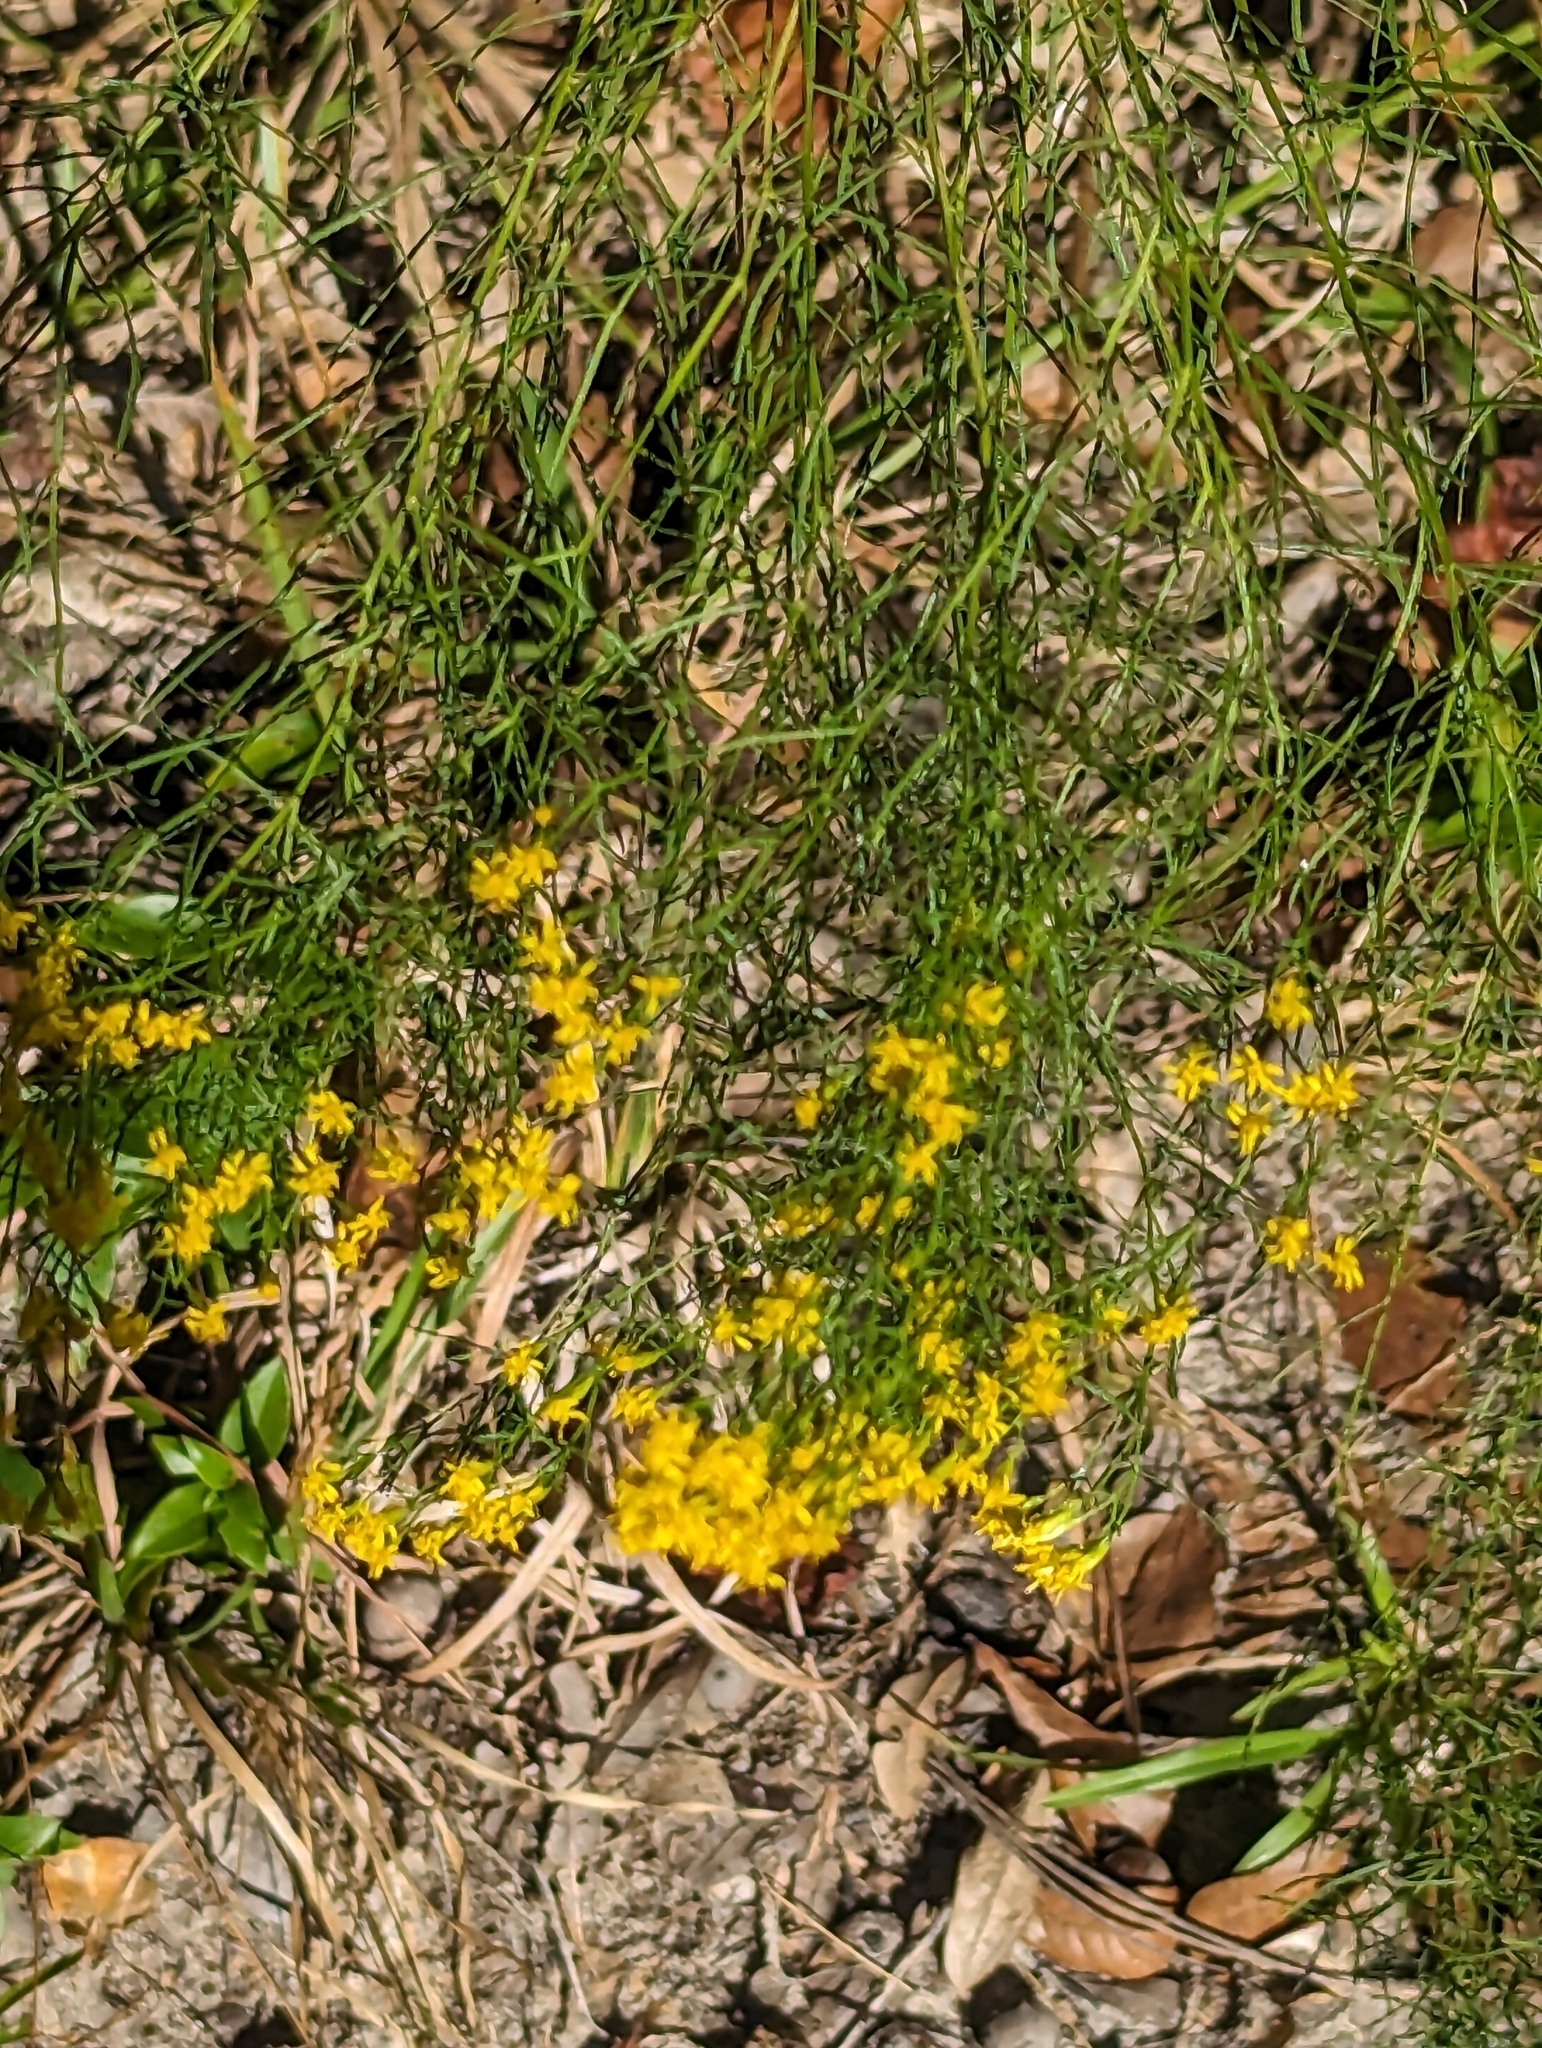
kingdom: Plantae
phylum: Tracheophyta
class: Magnoliopsida
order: Asterales
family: Asteraceae
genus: Euthamia
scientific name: Euthamia caroliniana
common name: Coastal plain goldentop
